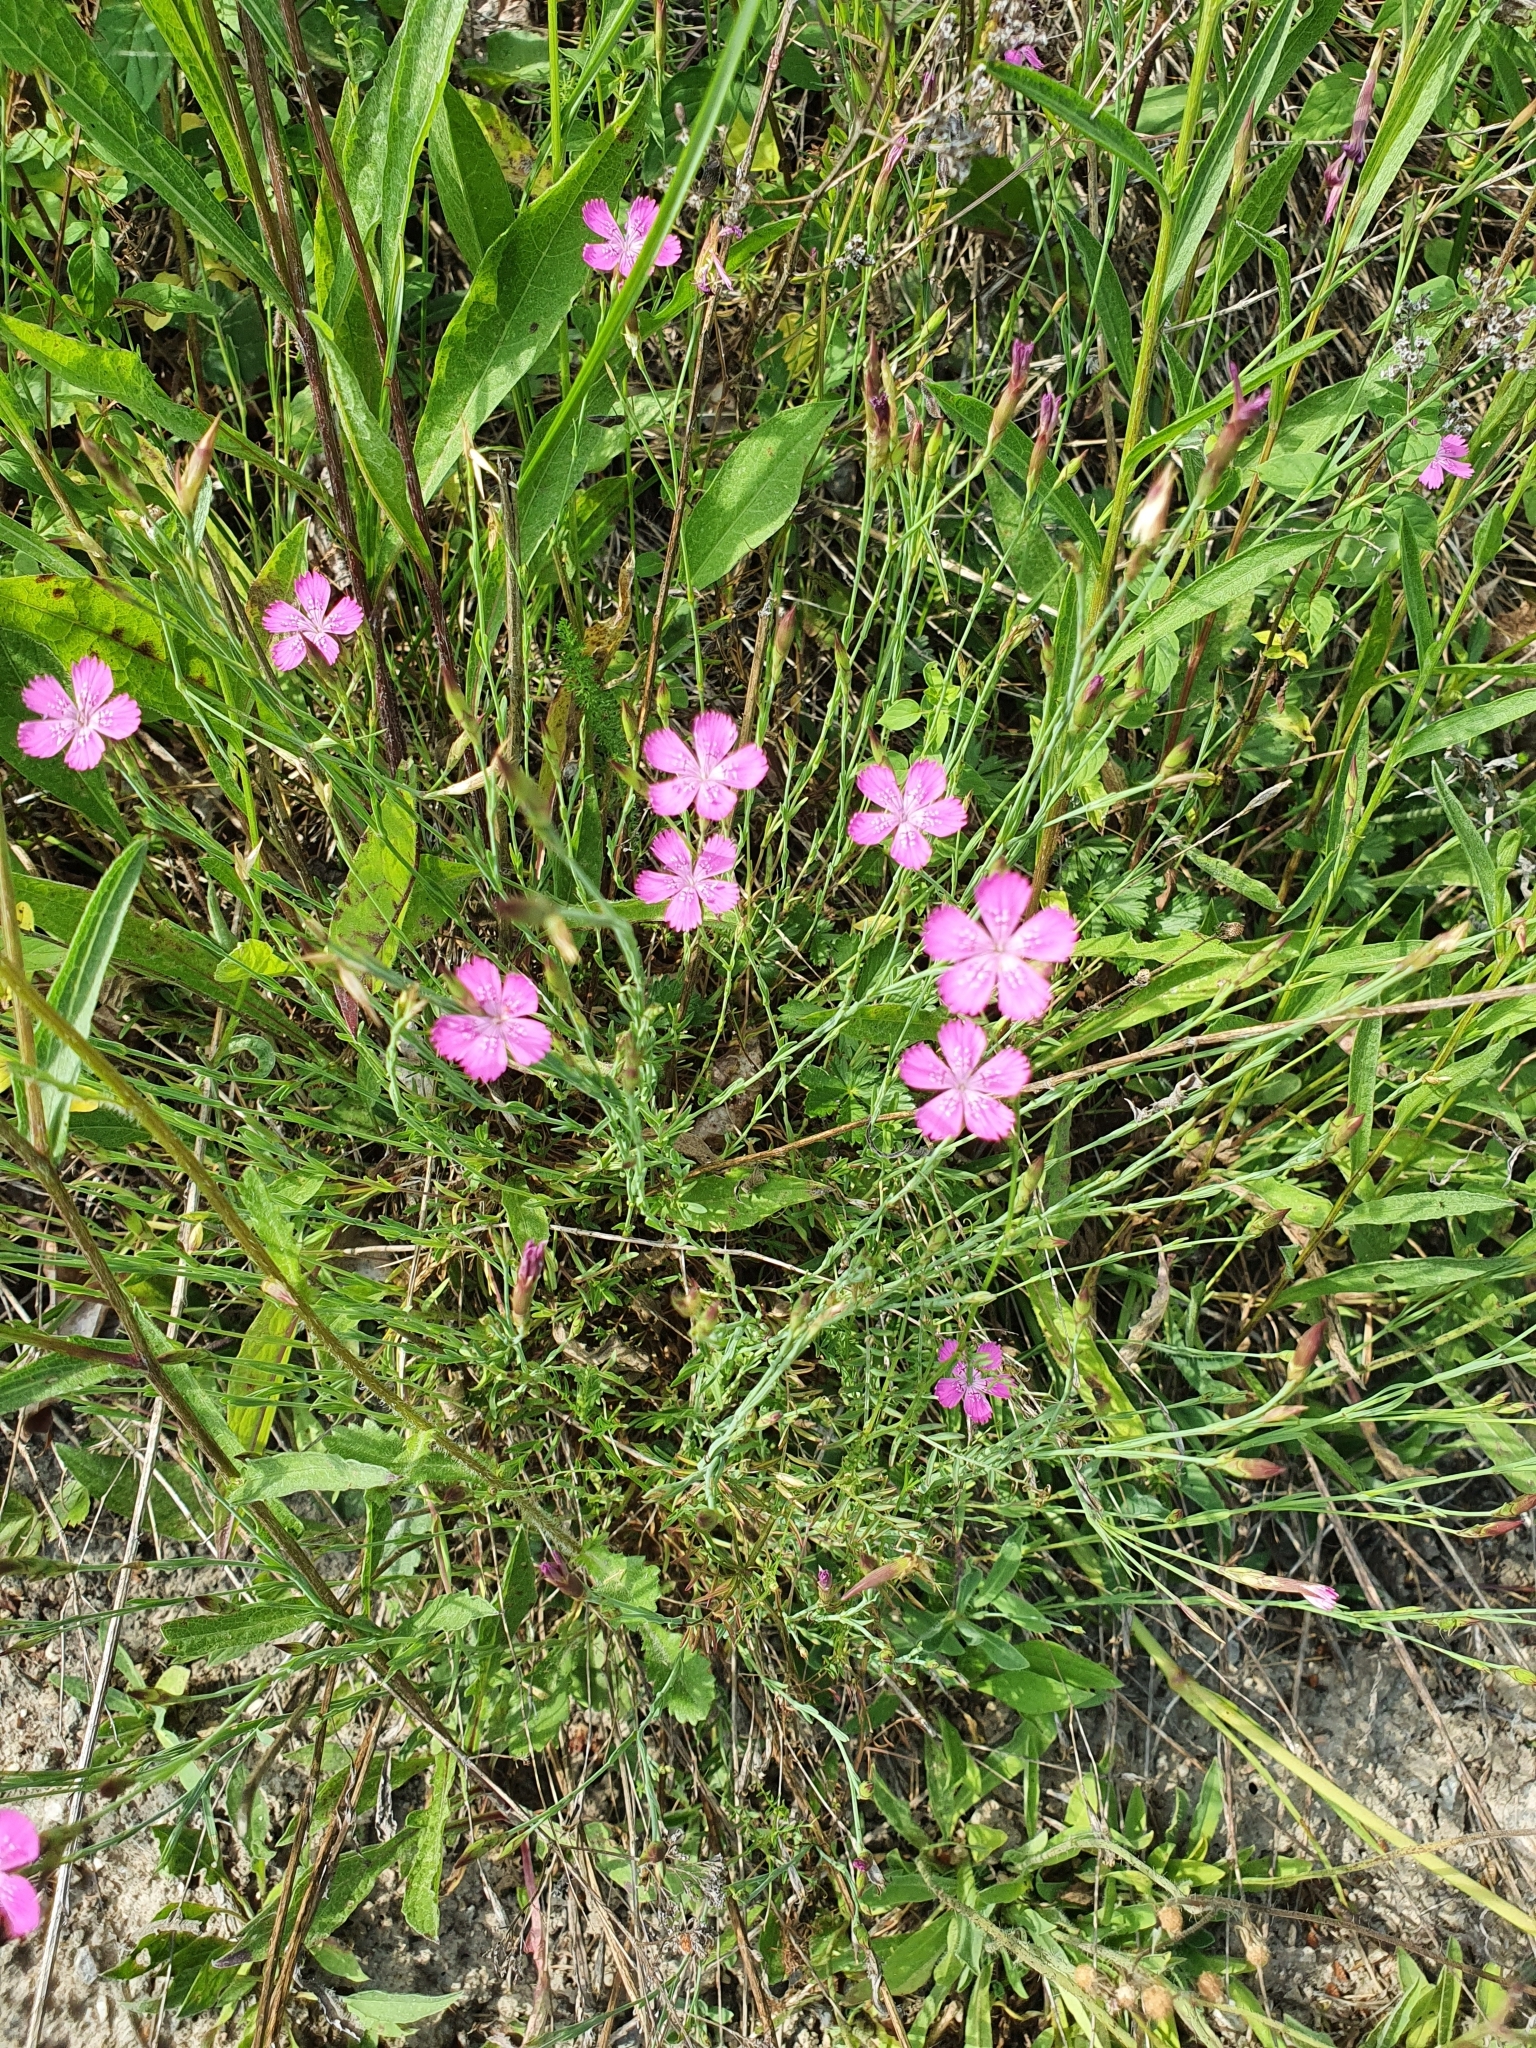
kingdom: Plantae
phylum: Tracheophyta
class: Magnoliopsida
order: Caryophyllales
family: Caryophyllaceae
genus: Dianthus
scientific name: Dianthus deltoides
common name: Maiden pink
